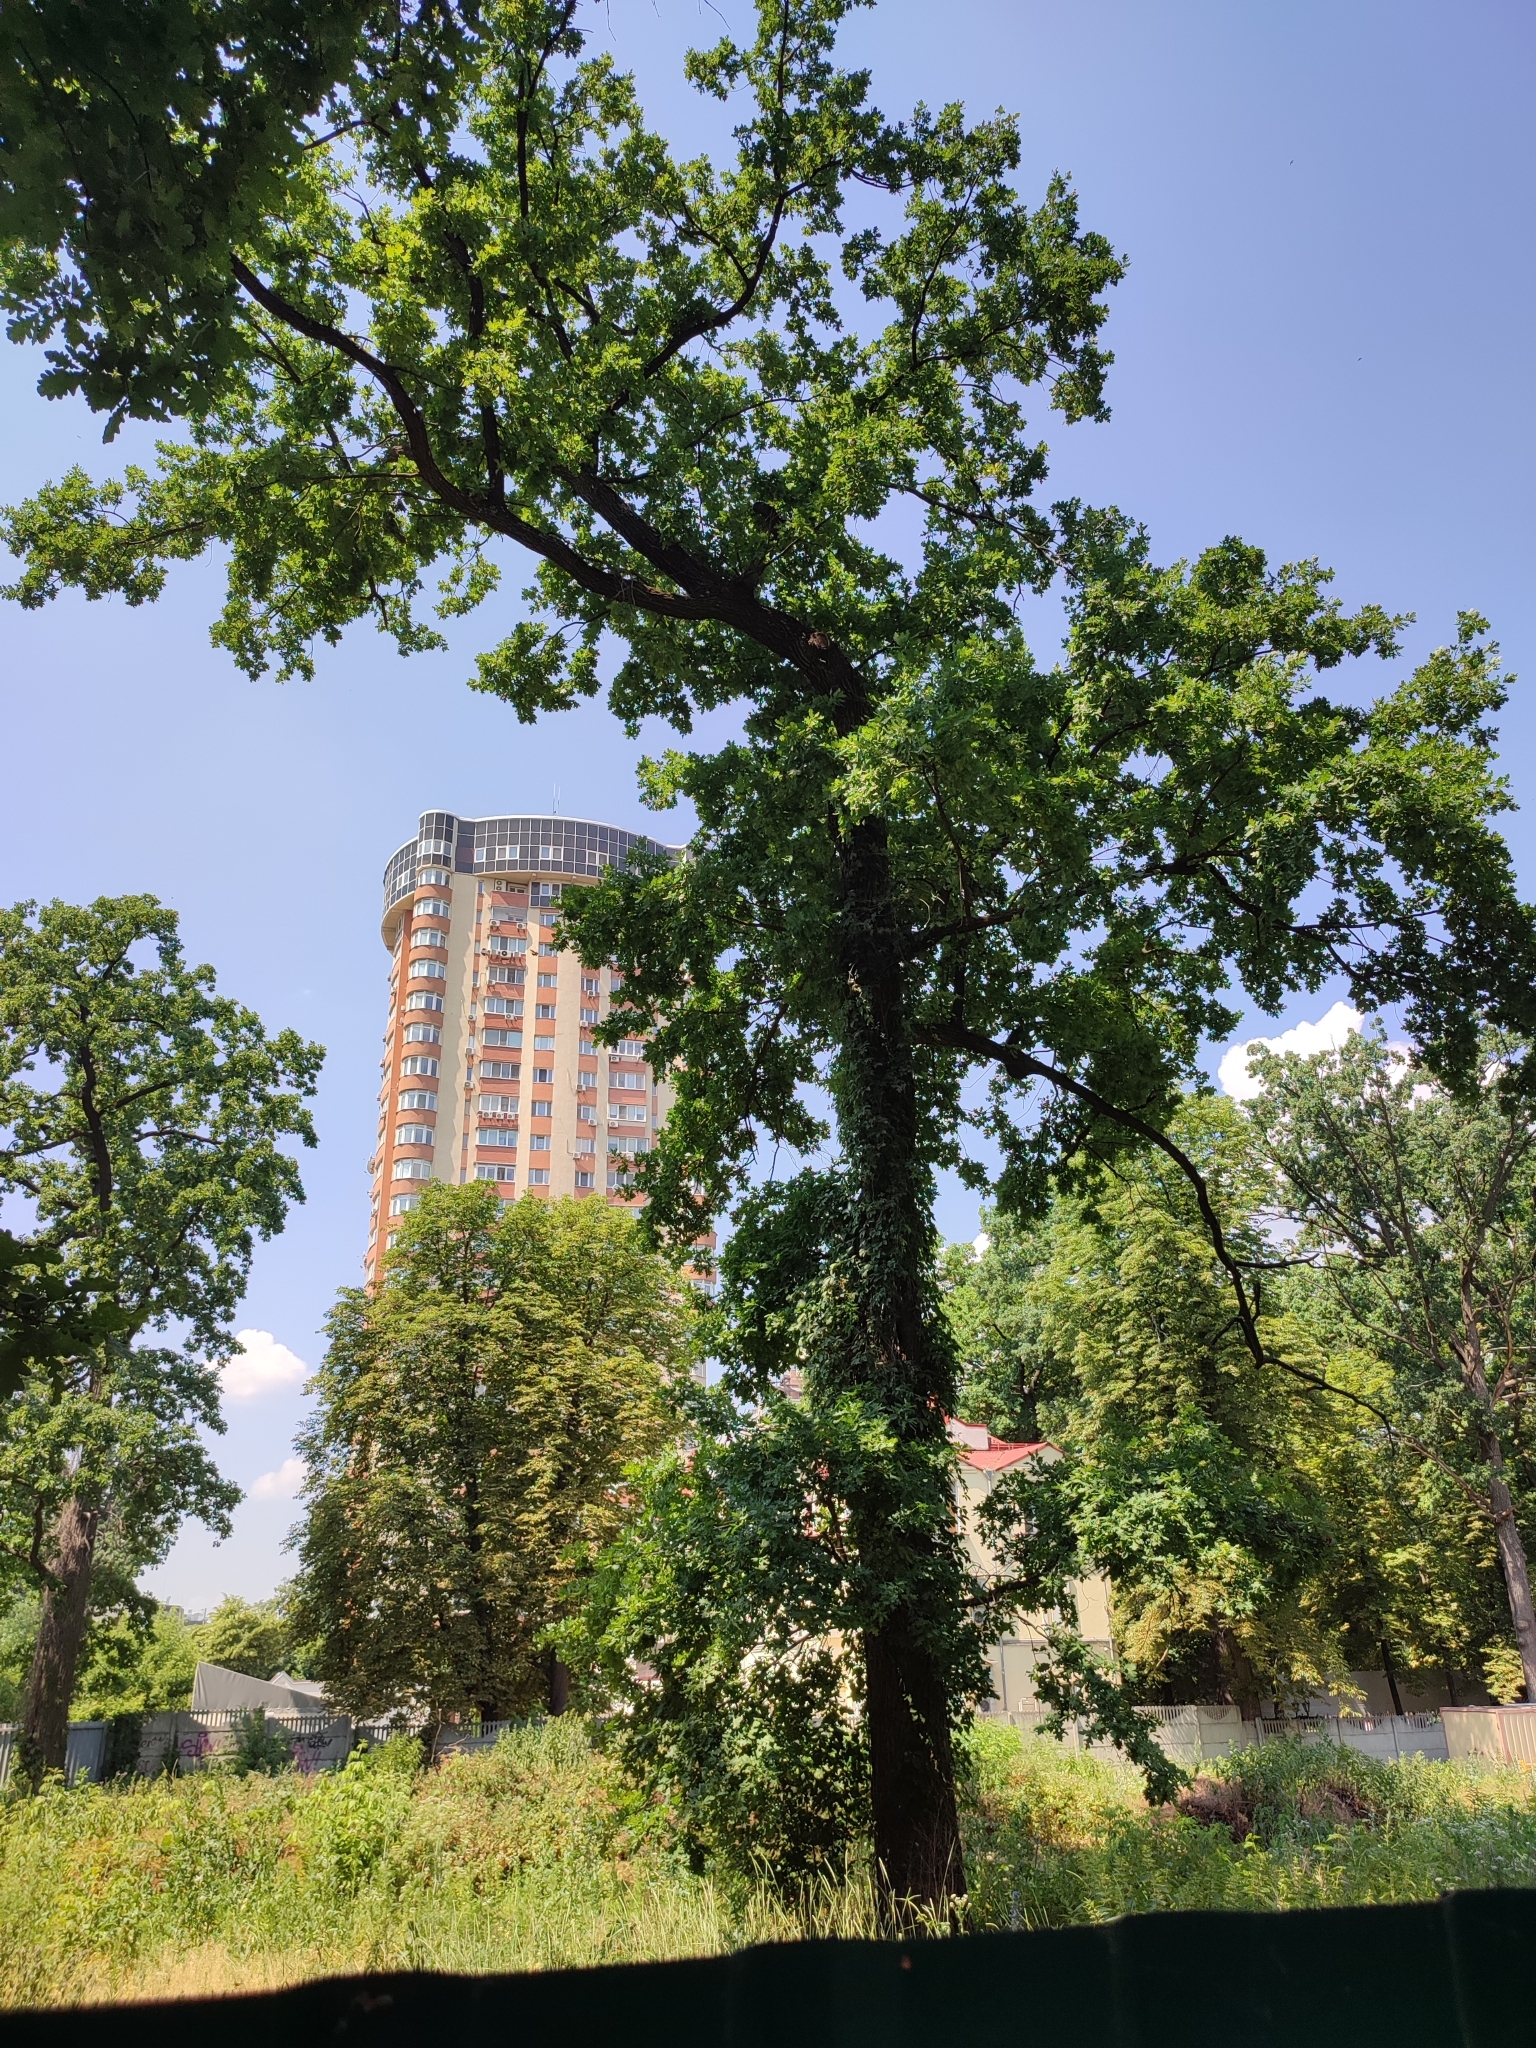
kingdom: Plantae
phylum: Tracheophyta
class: Magnoliopsida
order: Fagales
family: Fagaceae
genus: Quercus
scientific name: Quercus robur
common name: Pedunculate oak
